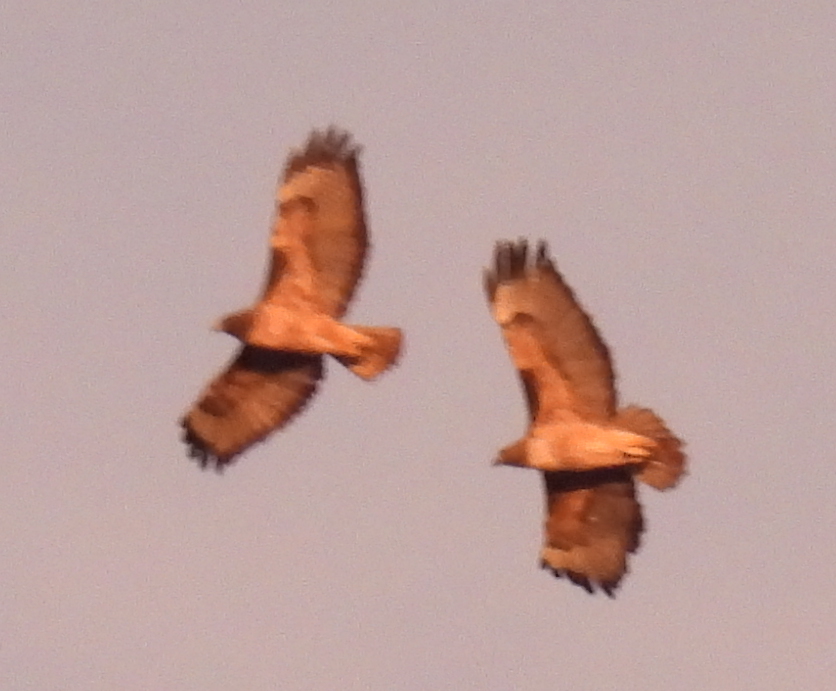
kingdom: Animalia
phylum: Chordata
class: Aves
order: Accipitriformes
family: Accipitridae
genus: Buteo
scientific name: Buteo jamaicensis
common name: Red-tailed hawk
